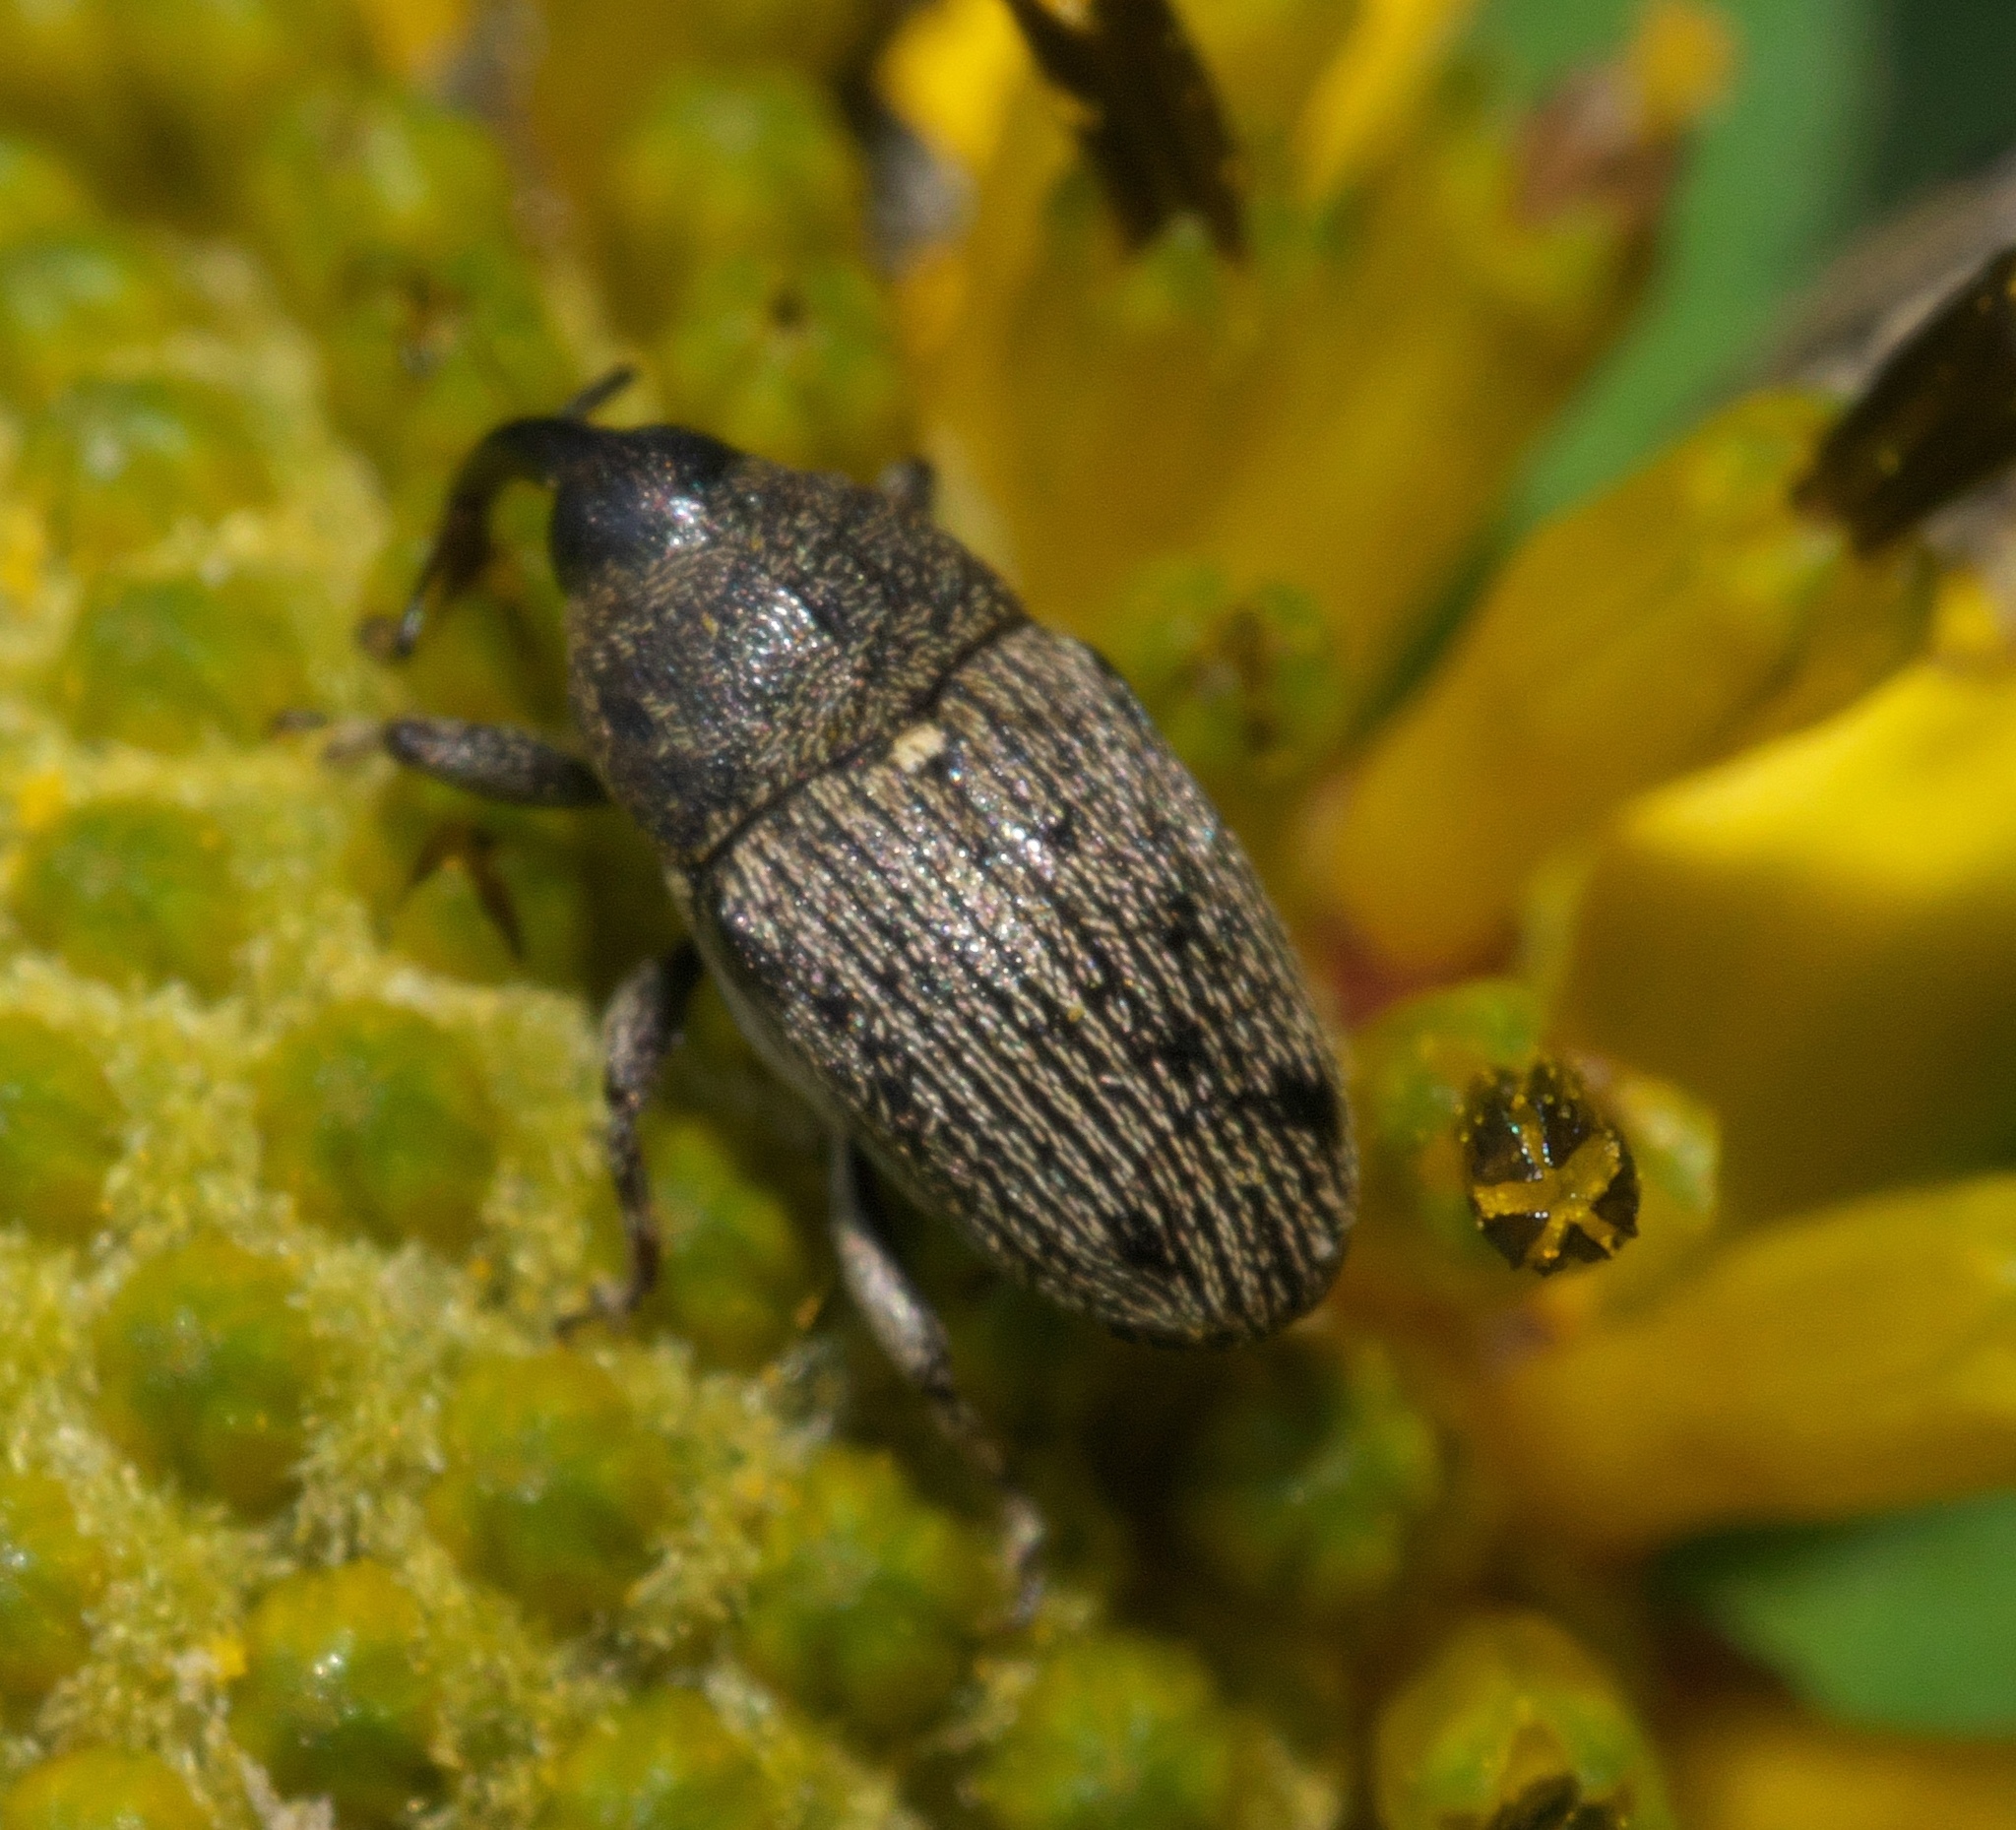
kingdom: Animalia
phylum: Arthropoda
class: Insecta
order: Coleoptera
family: Curculionidae
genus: Odontocorynus
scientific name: Odontocorynus umbellae
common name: Daisy flower weevil
